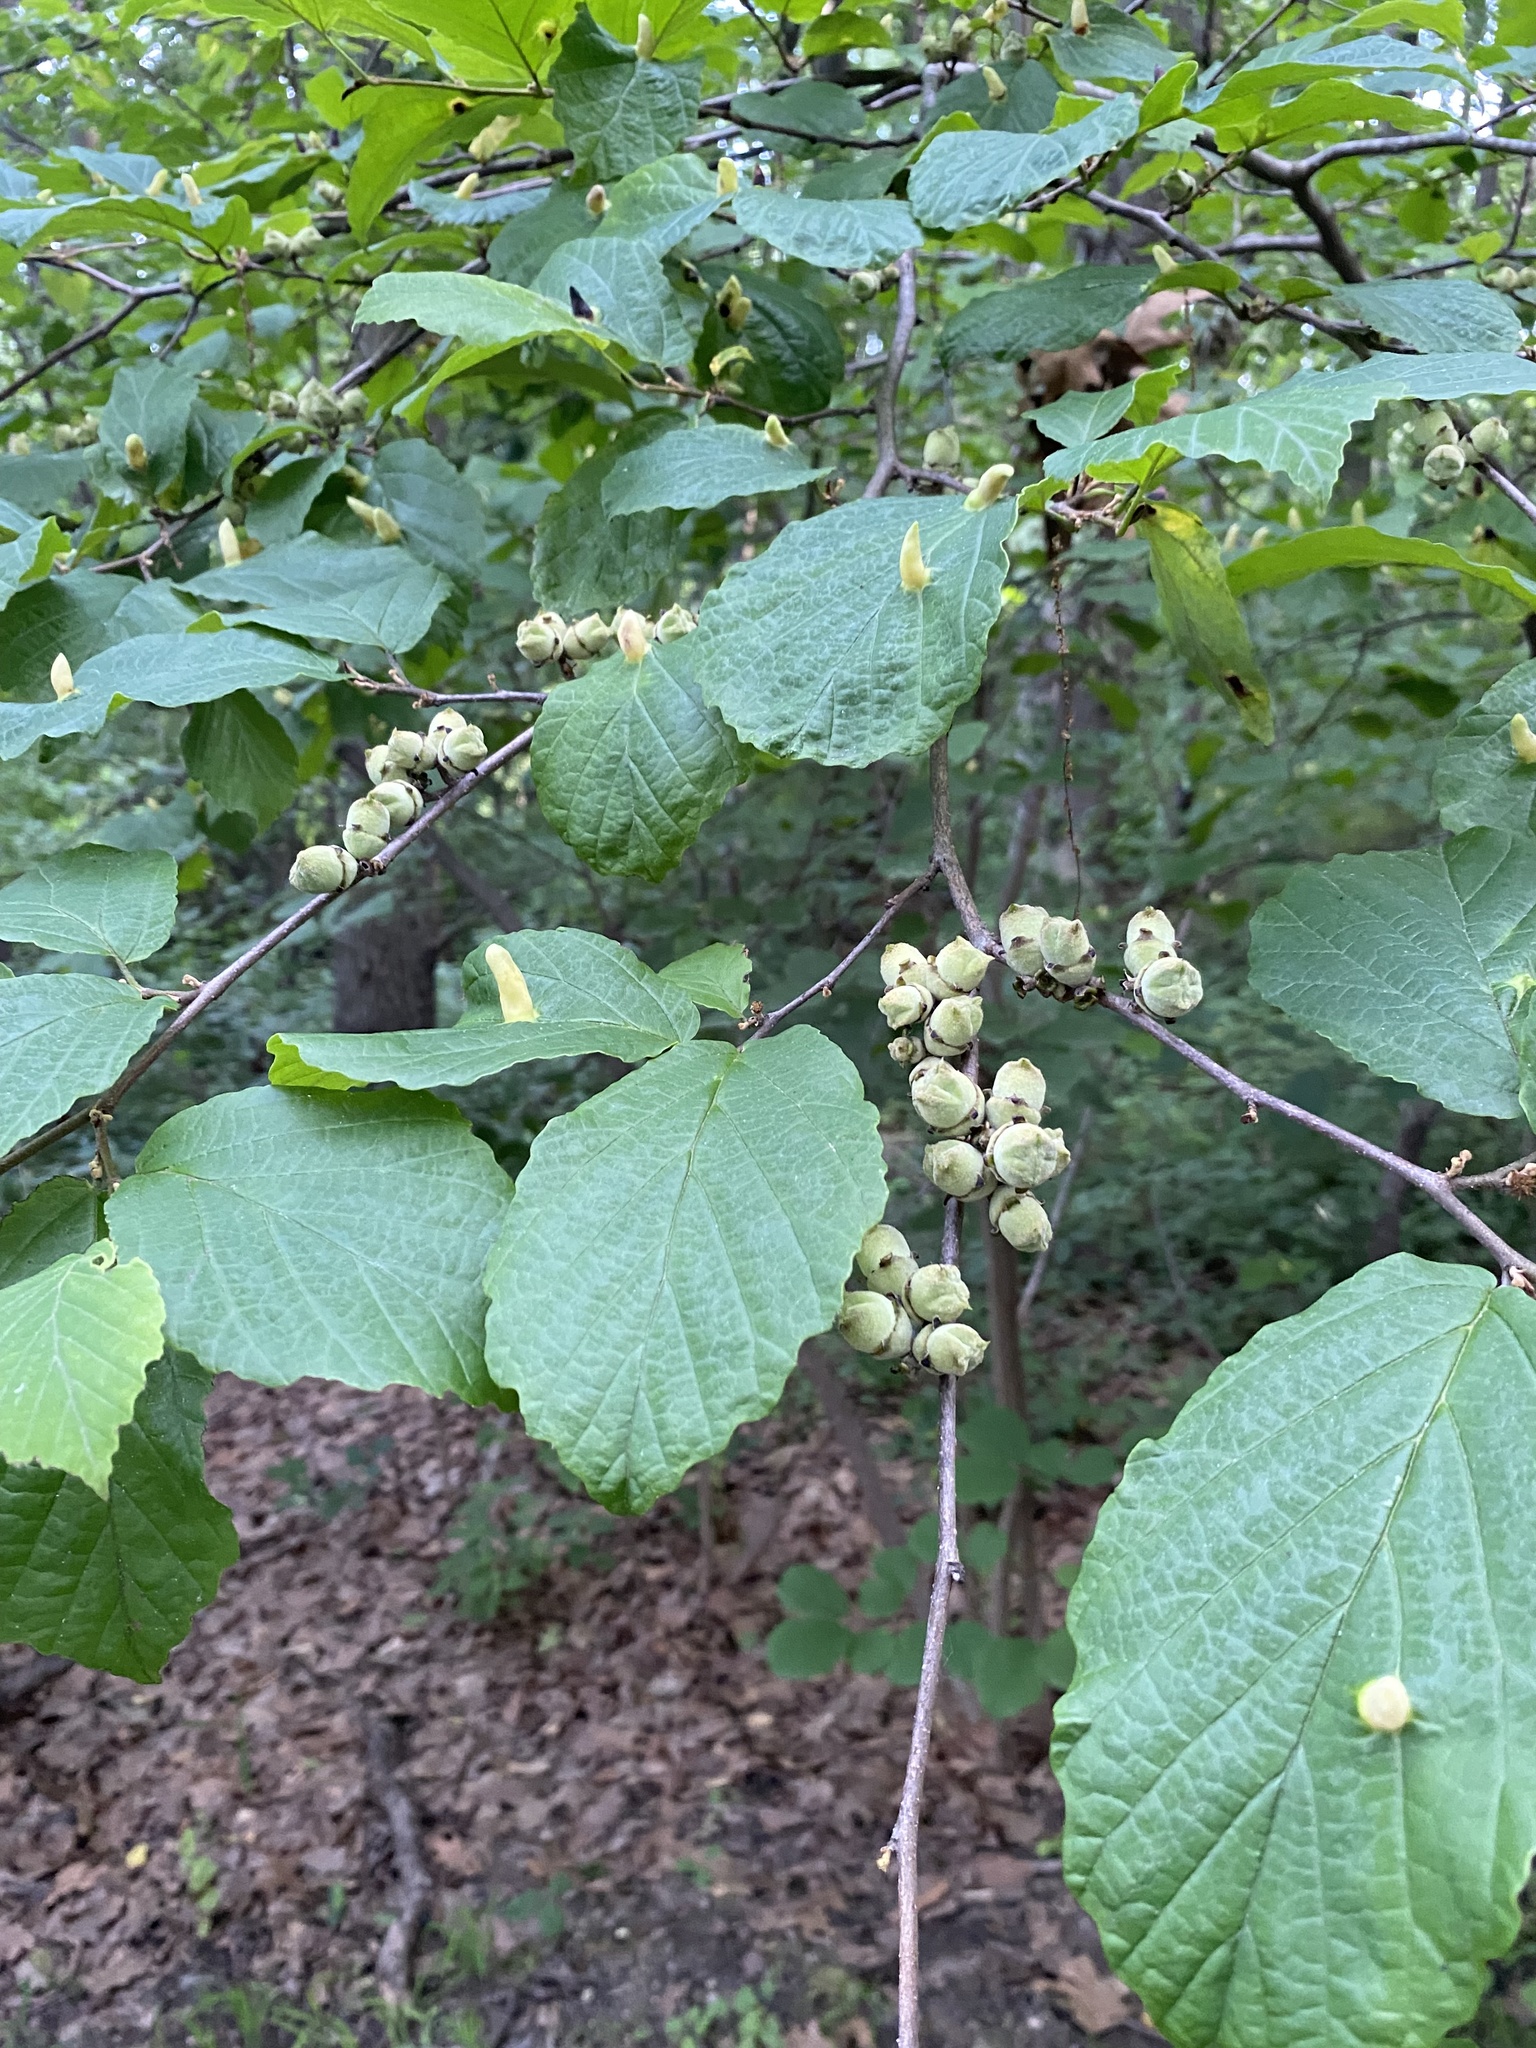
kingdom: Plantae
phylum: Tracheophyta
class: Magnoliopsida
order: Saxifragales
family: Hamamelidaceae
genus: Hamamelis
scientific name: Hamamelis virginiana
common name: Witch-hazel
